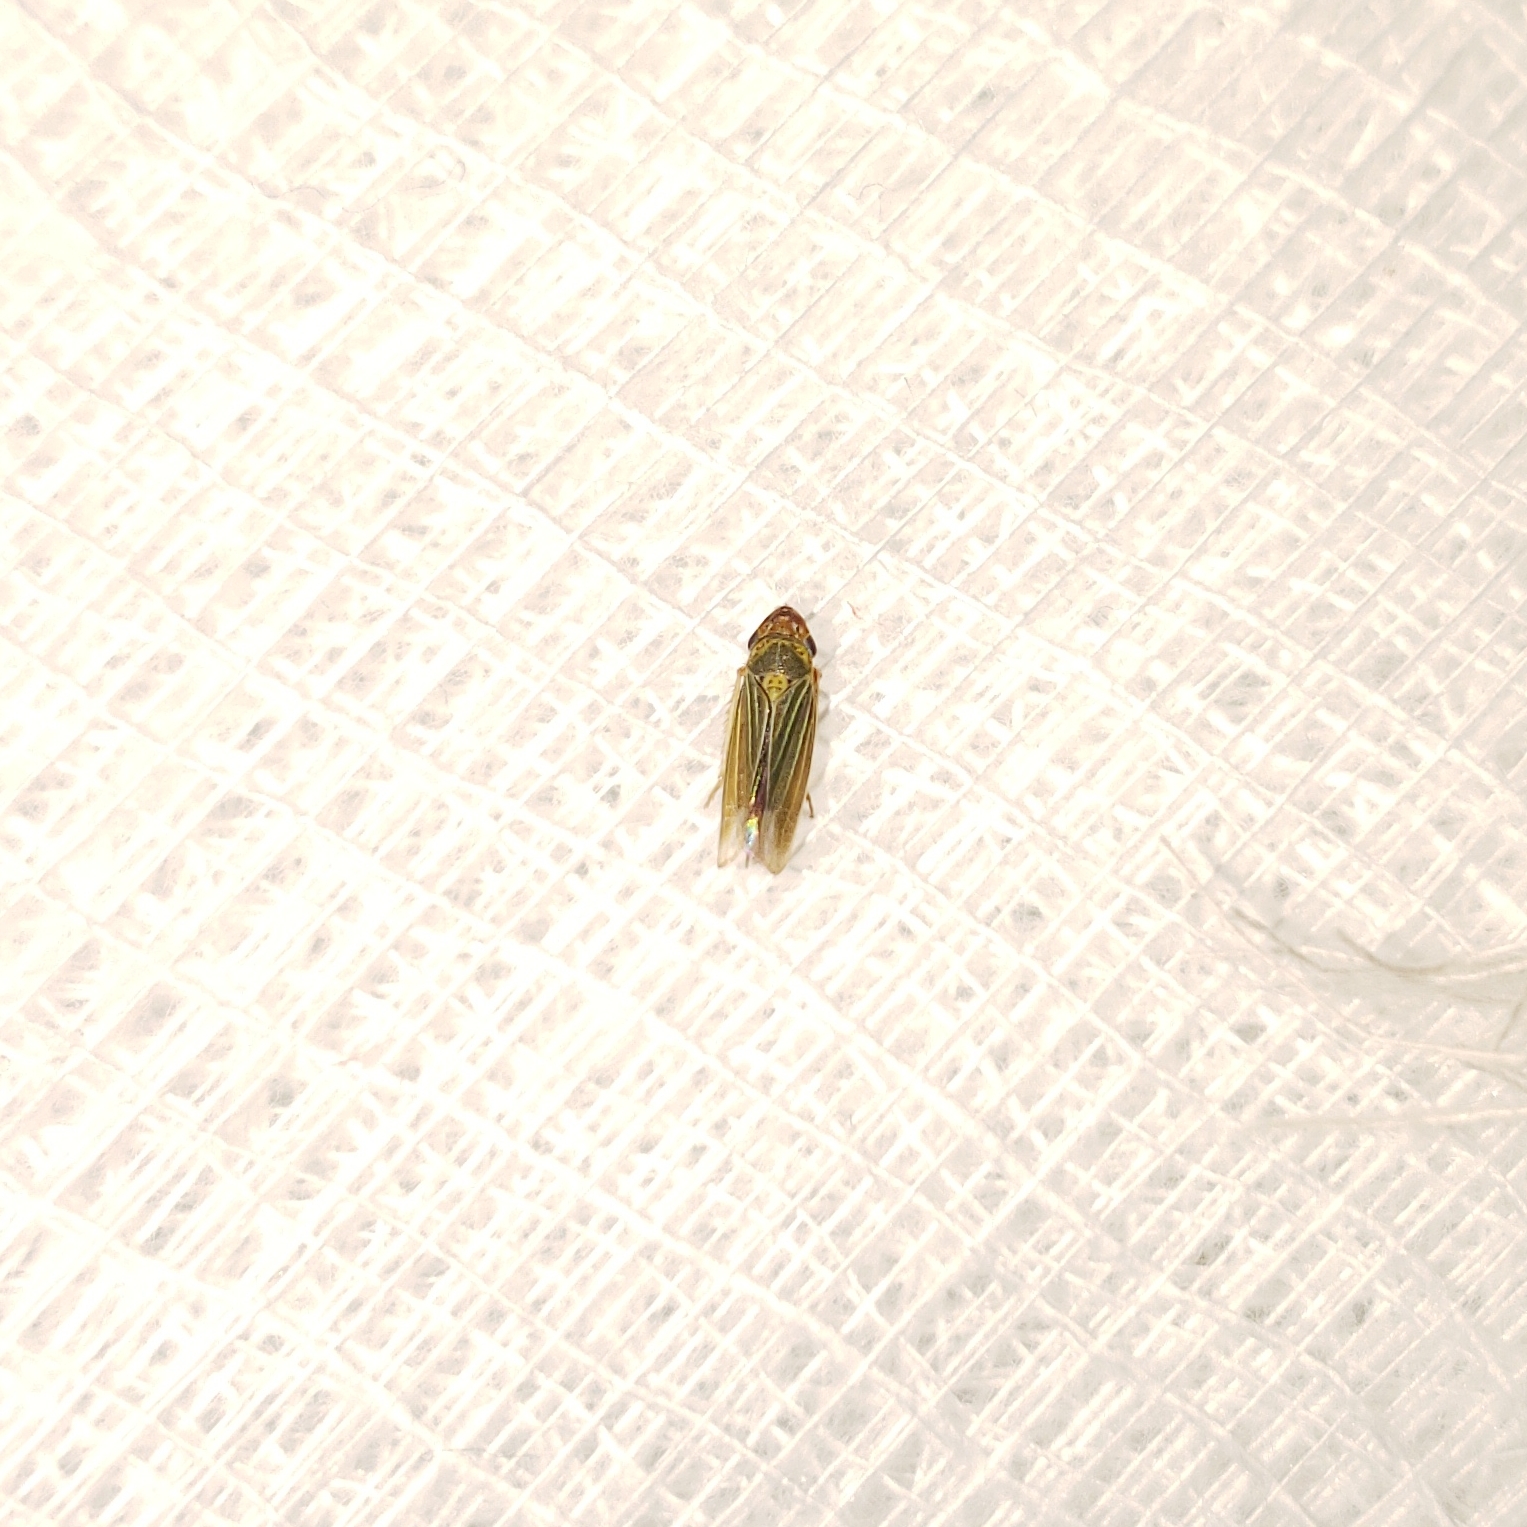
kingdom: Animalia
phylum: Arthropoda
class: Insecta
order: Hemiptera
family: Cicadellidae
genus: Xyphon
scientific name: Xyphon reticulatum
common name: Planthopper
